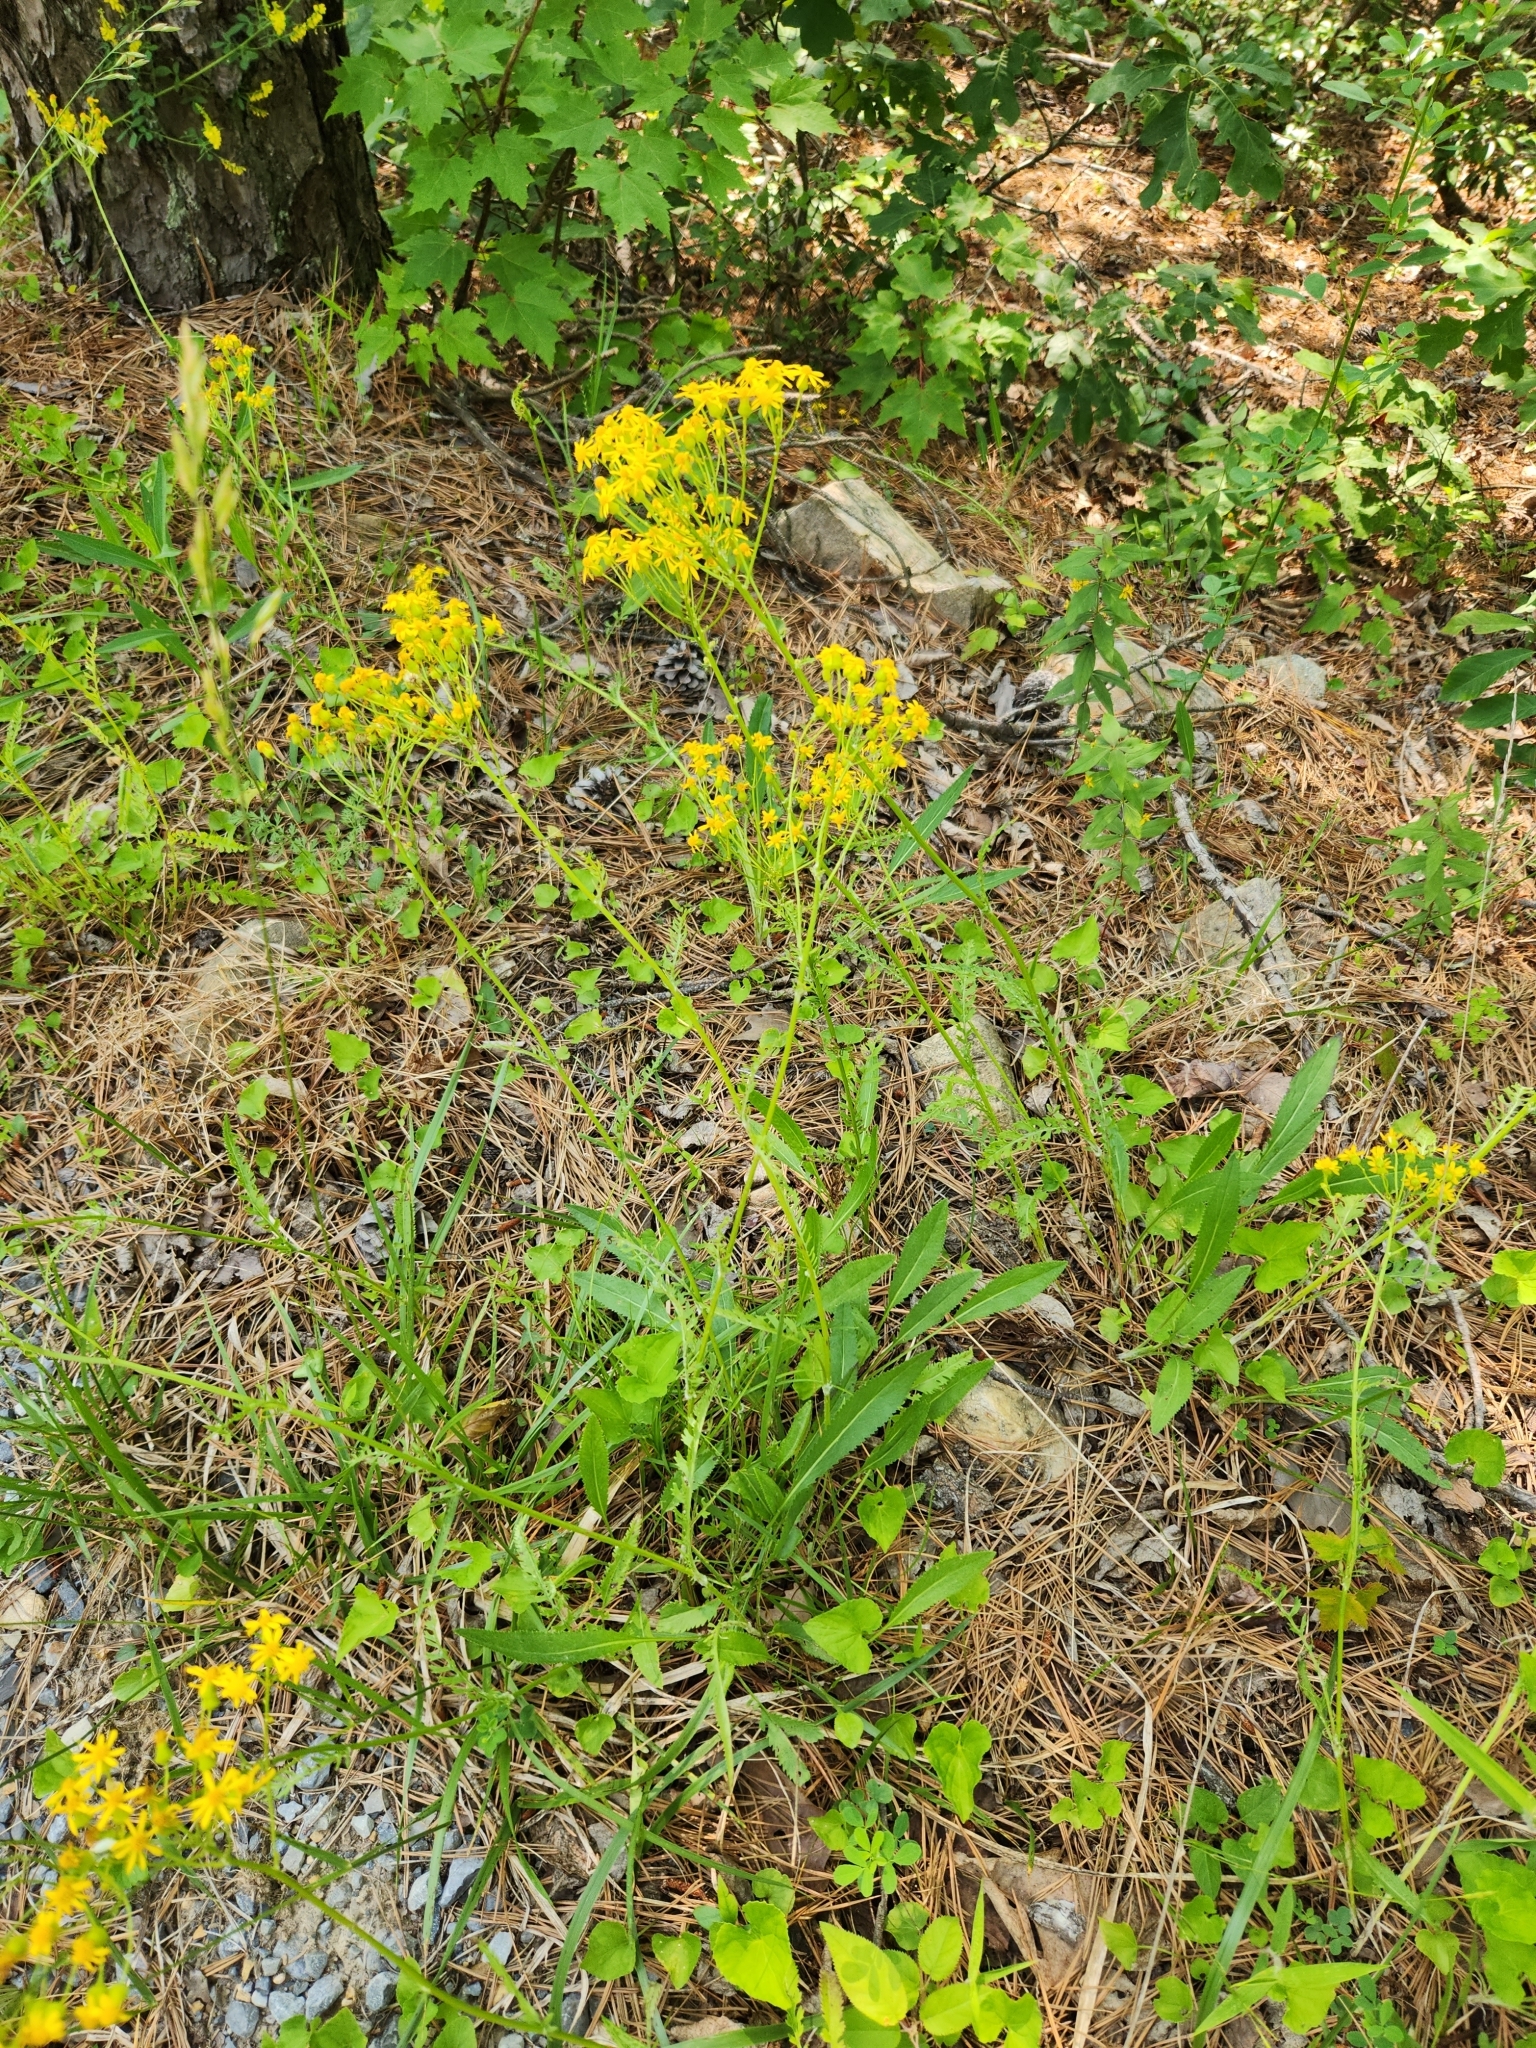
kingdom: Plantae
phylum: Tracheophyta
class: Magnoliopsida
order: Asterales
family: Asteraceae
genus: Packera
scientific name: Packera anonyma
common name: Small ragwort
